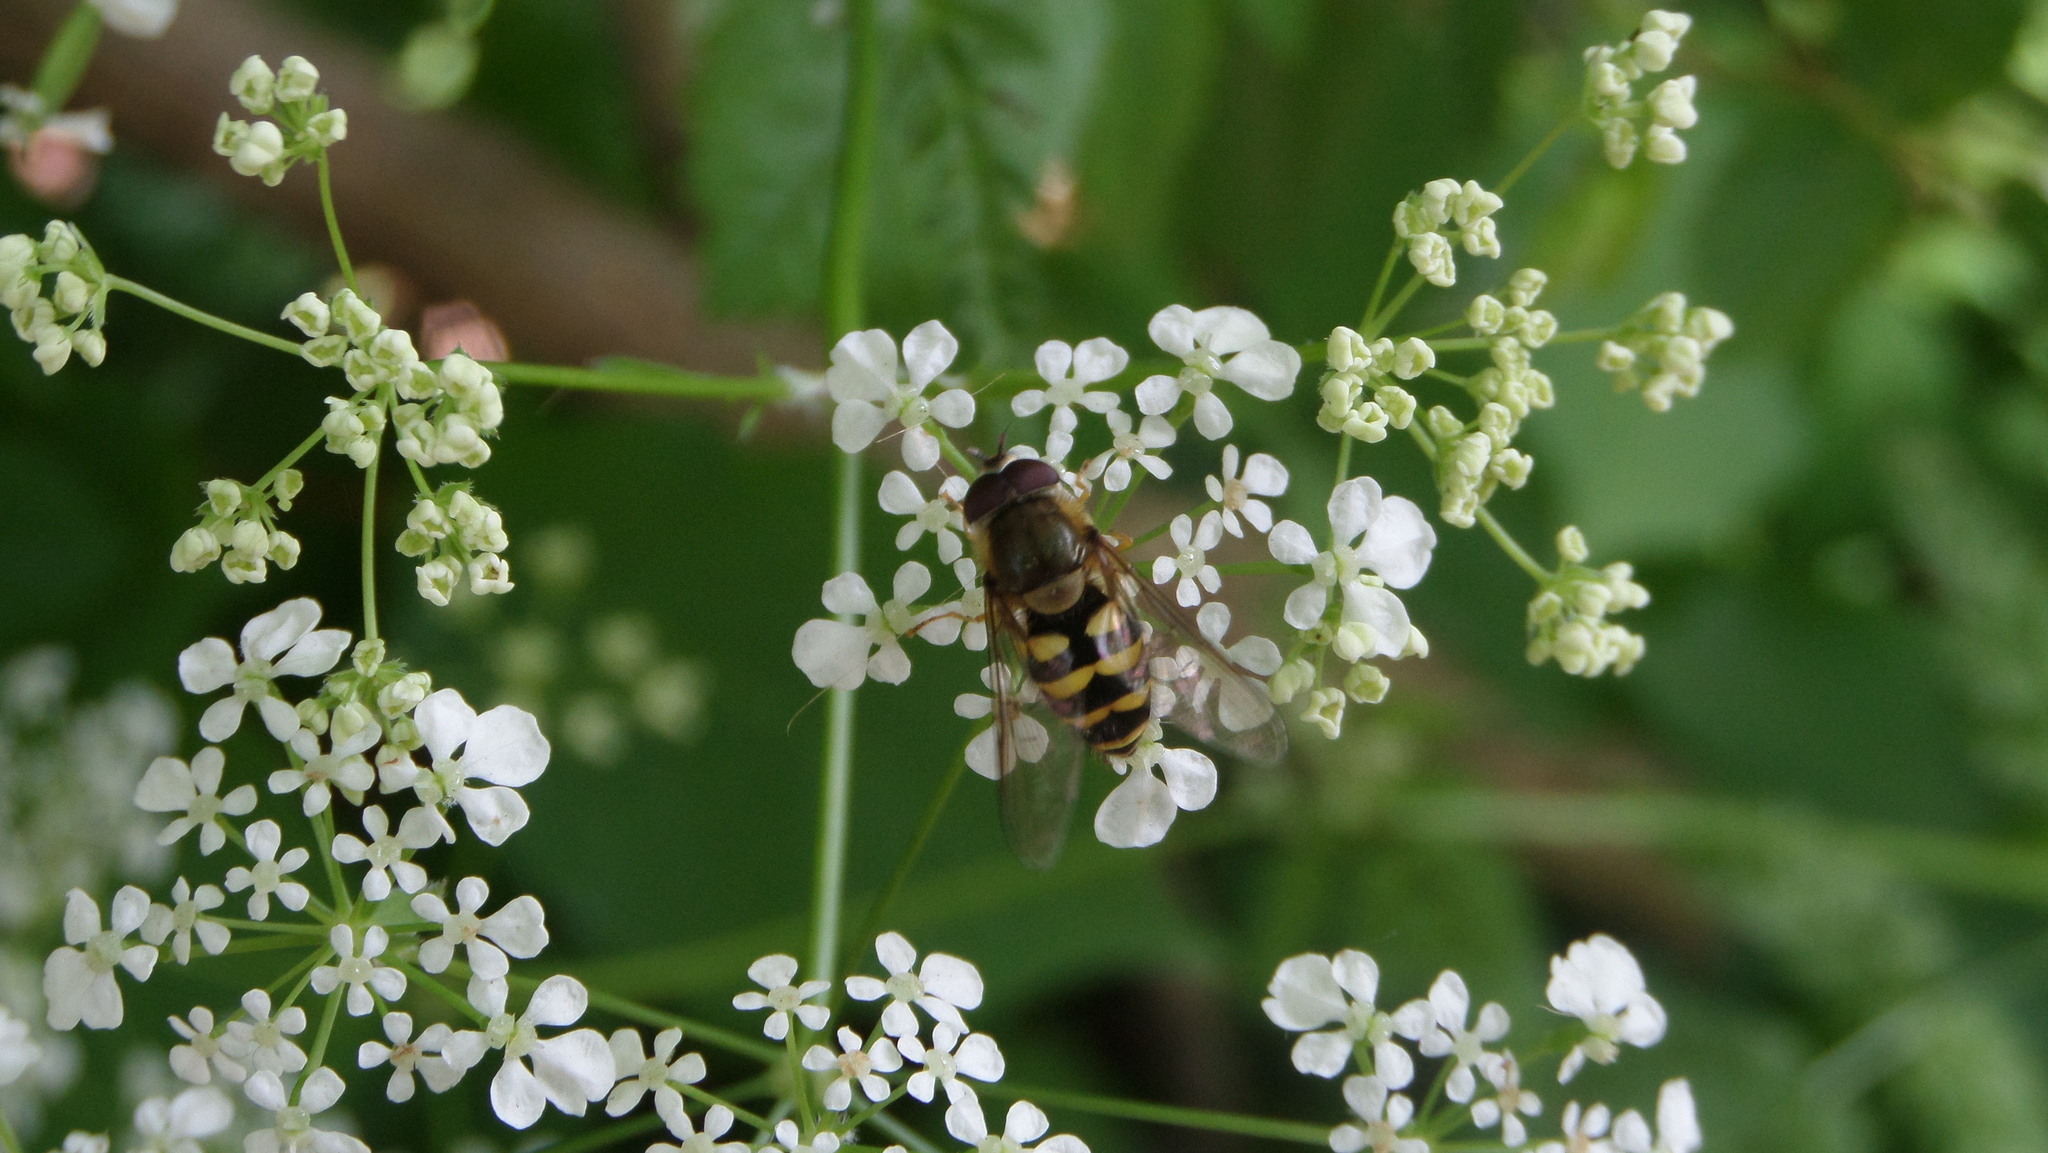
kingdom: Animalia
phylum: Arthropoda
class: Insecta
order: Diptera
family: Syrphidae
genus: Syrphus
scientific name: Syrphus
